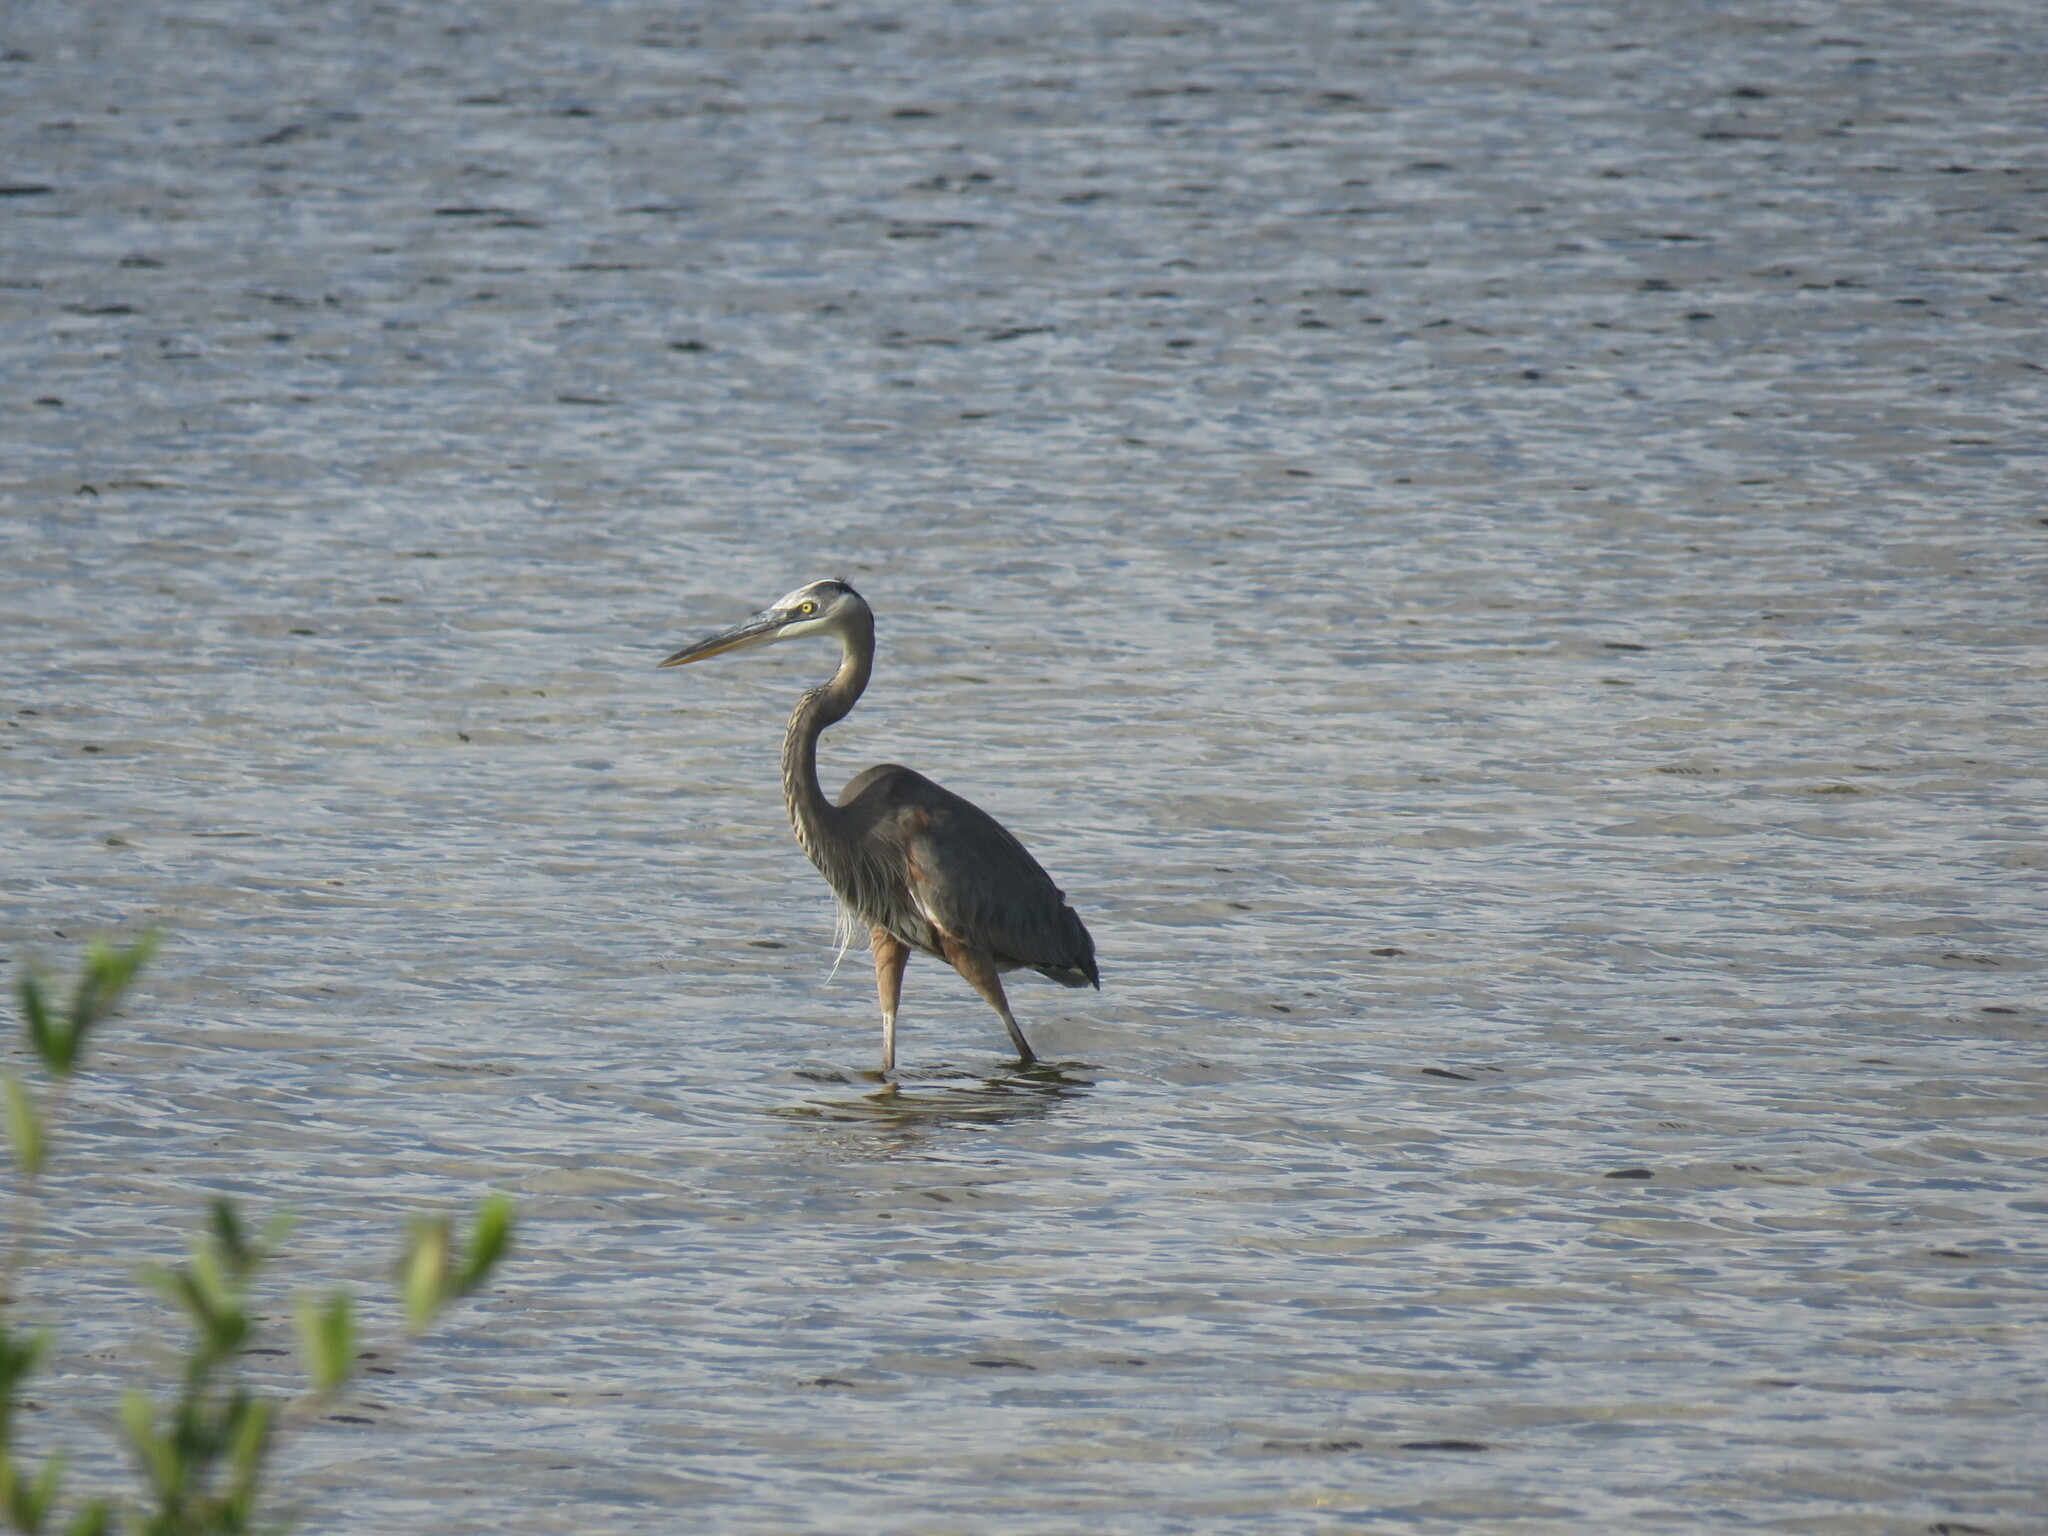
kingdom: Animalia
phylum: Chordata
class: Aves
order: Pelecaniformes
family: Ardeidae
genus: Ardea
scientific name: Ardea herodias
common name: Great blue heron
